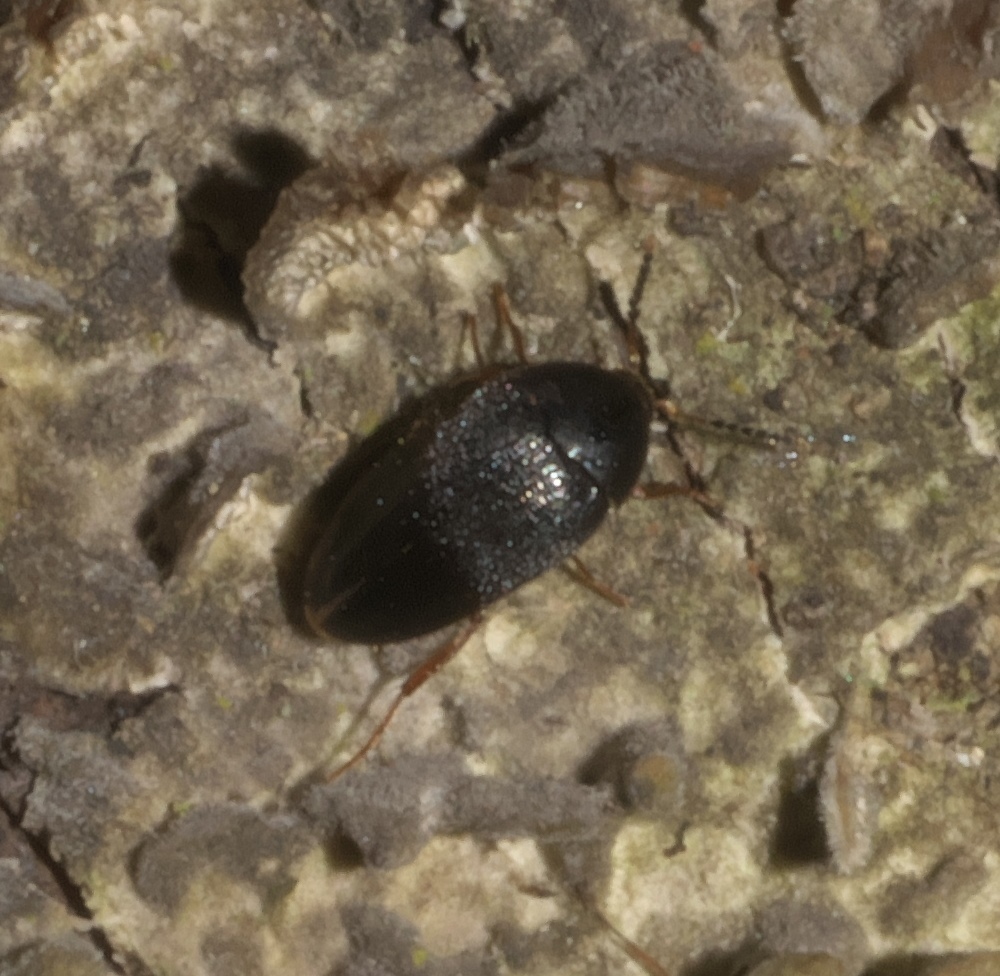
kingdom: Animalia
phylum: Arthropoda
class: Insecta
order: Coleoptera
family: Tetratomidae
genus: Eustrophopsis
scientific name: Eustrophopsis bicolor
